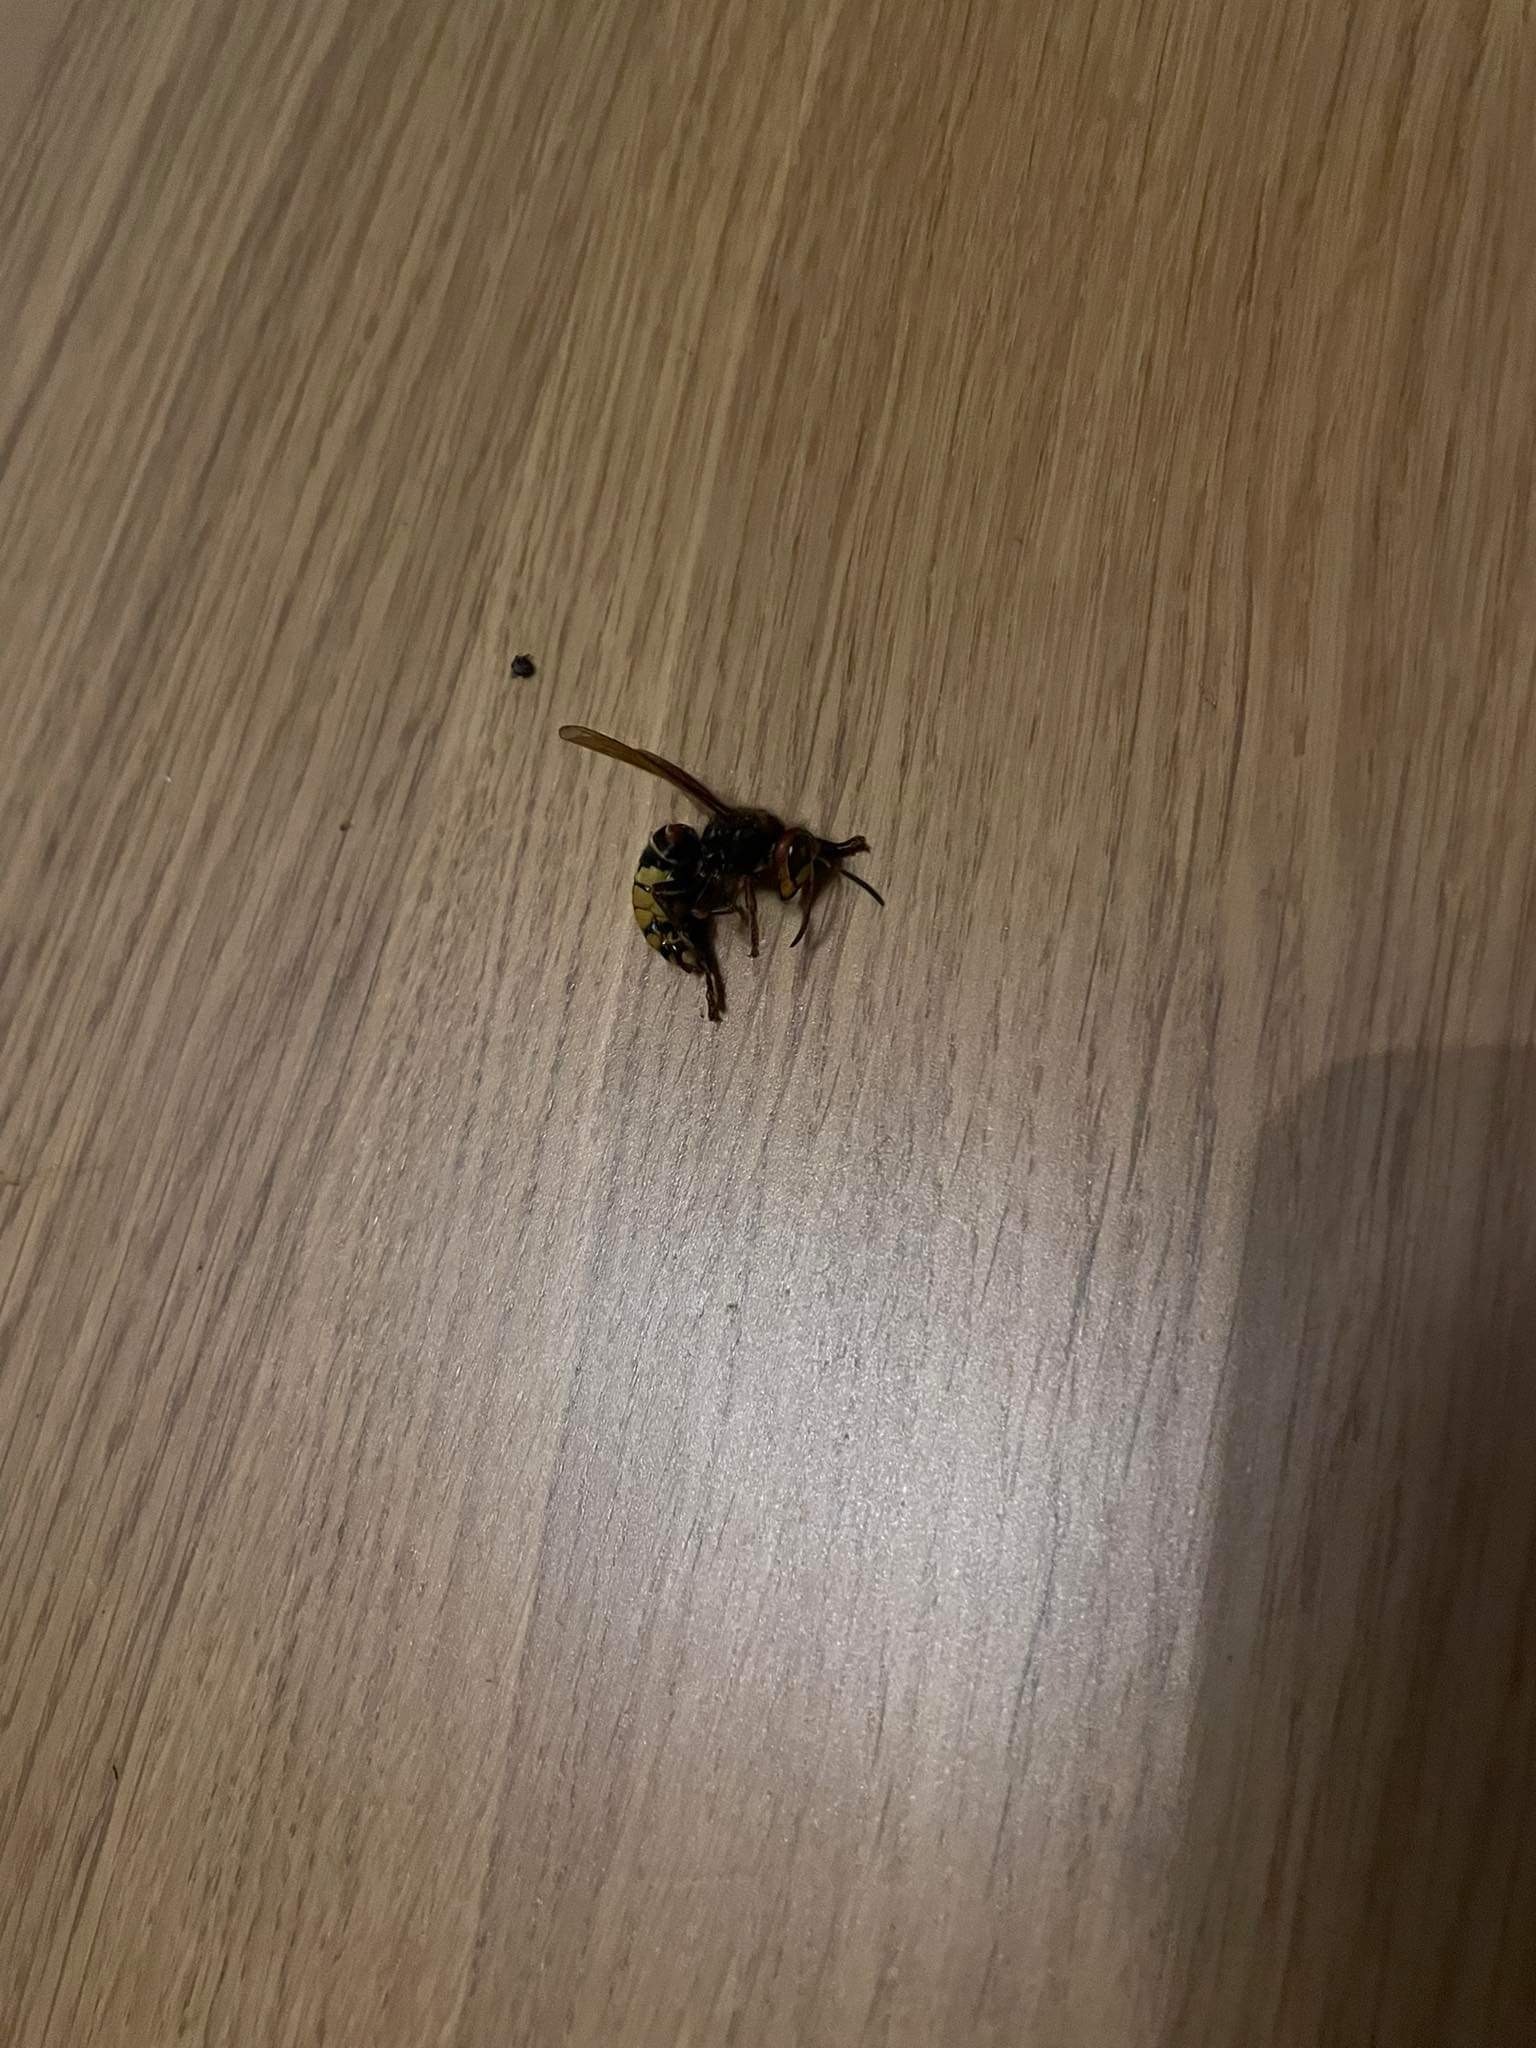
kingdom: Animalia
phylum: Arthropoda
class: Insecta
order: Hymenoptera
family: Vespidae
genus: Vespa
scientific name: Vespa crabro
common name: Hornet
